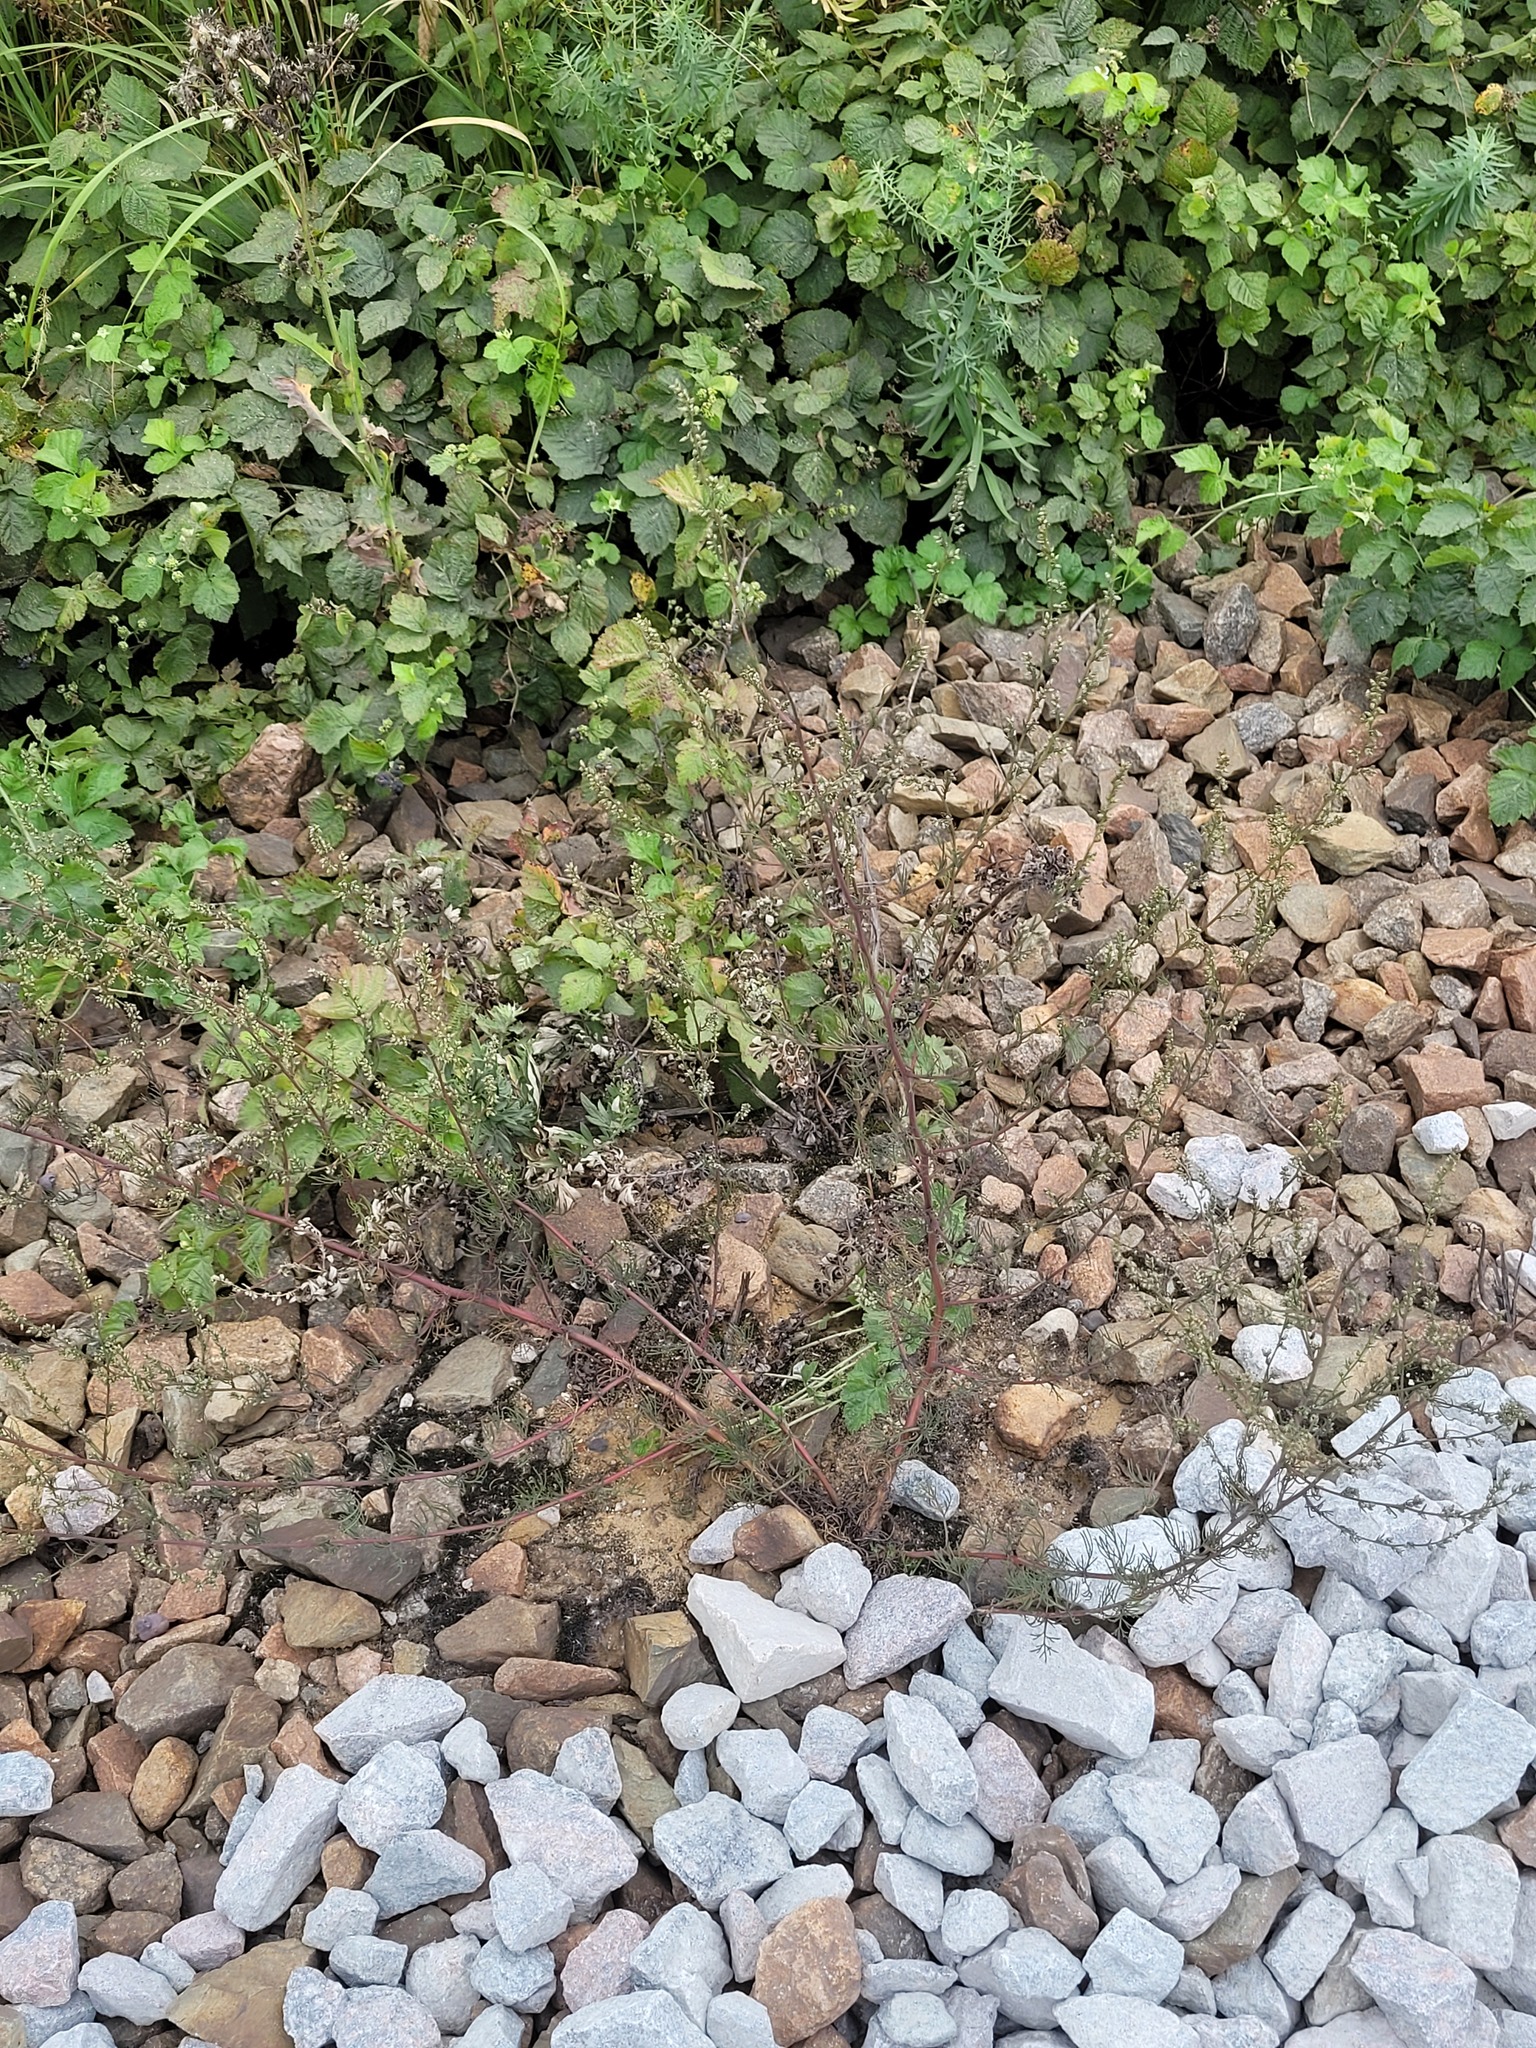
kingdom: Plantae
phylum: Tracheophyta
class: Magnoliopsida
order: Asterales
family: Asteraceae
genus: Artemisia
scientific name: Artemisia campestris
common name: Field wormwood
